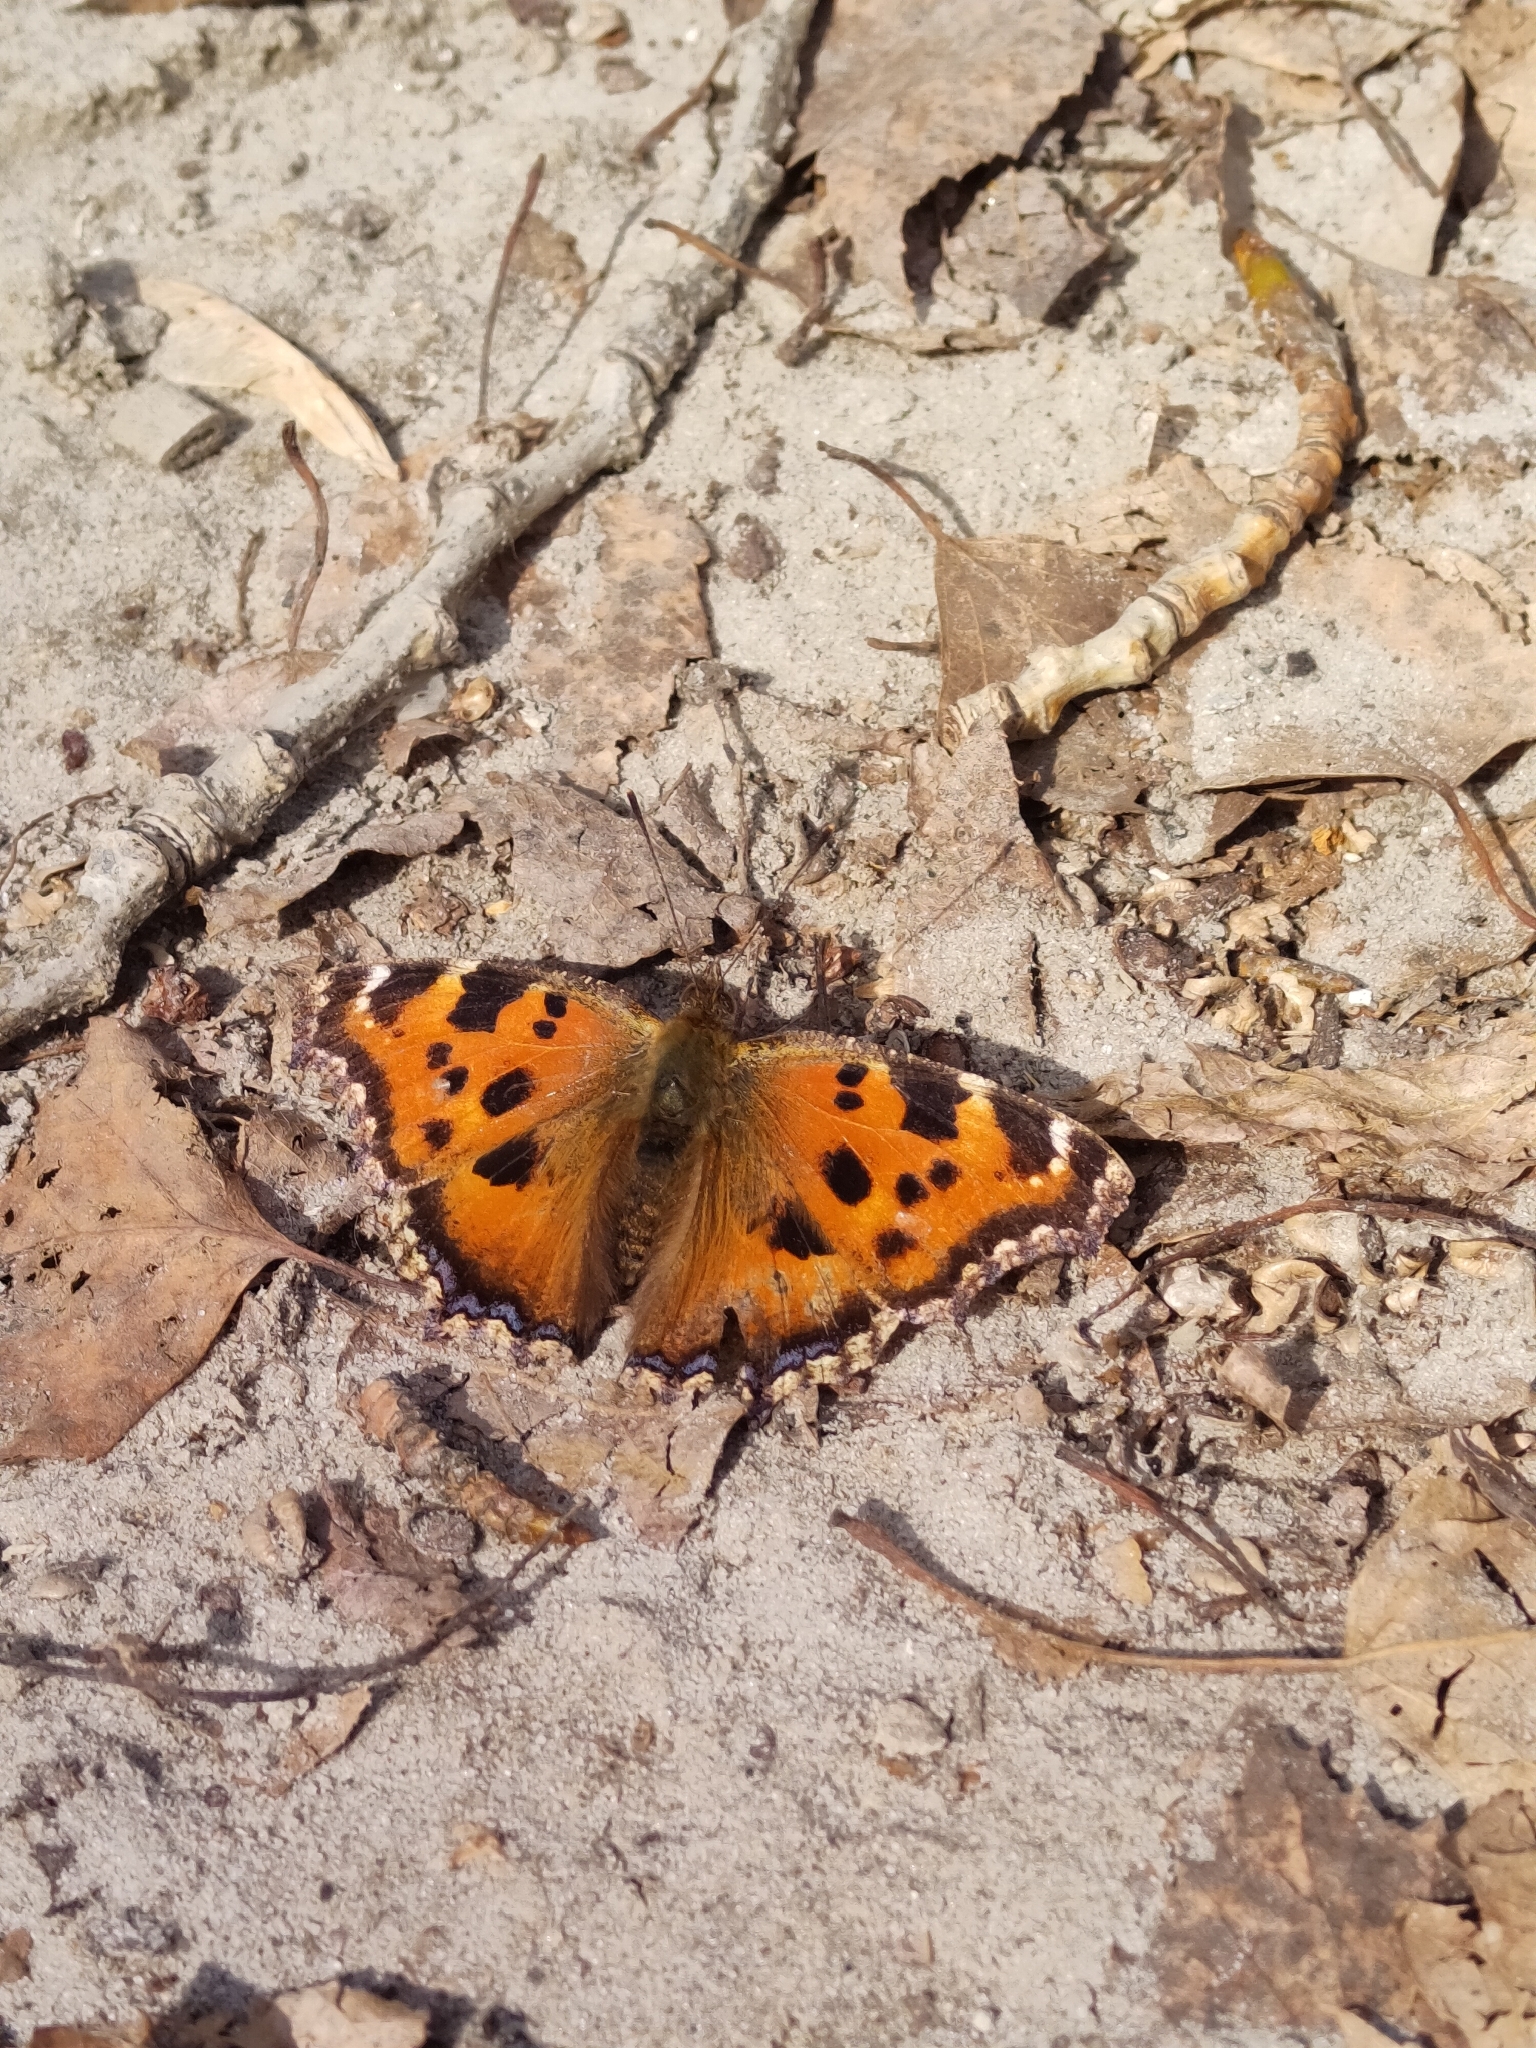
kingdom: Animalia
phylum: Arthropoda
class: Insecta
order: Lepidoptera
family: Nymphalidae
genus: Nymphalis
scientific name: Nymphalis xanthomelas
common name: Scarce tortoiseshell
